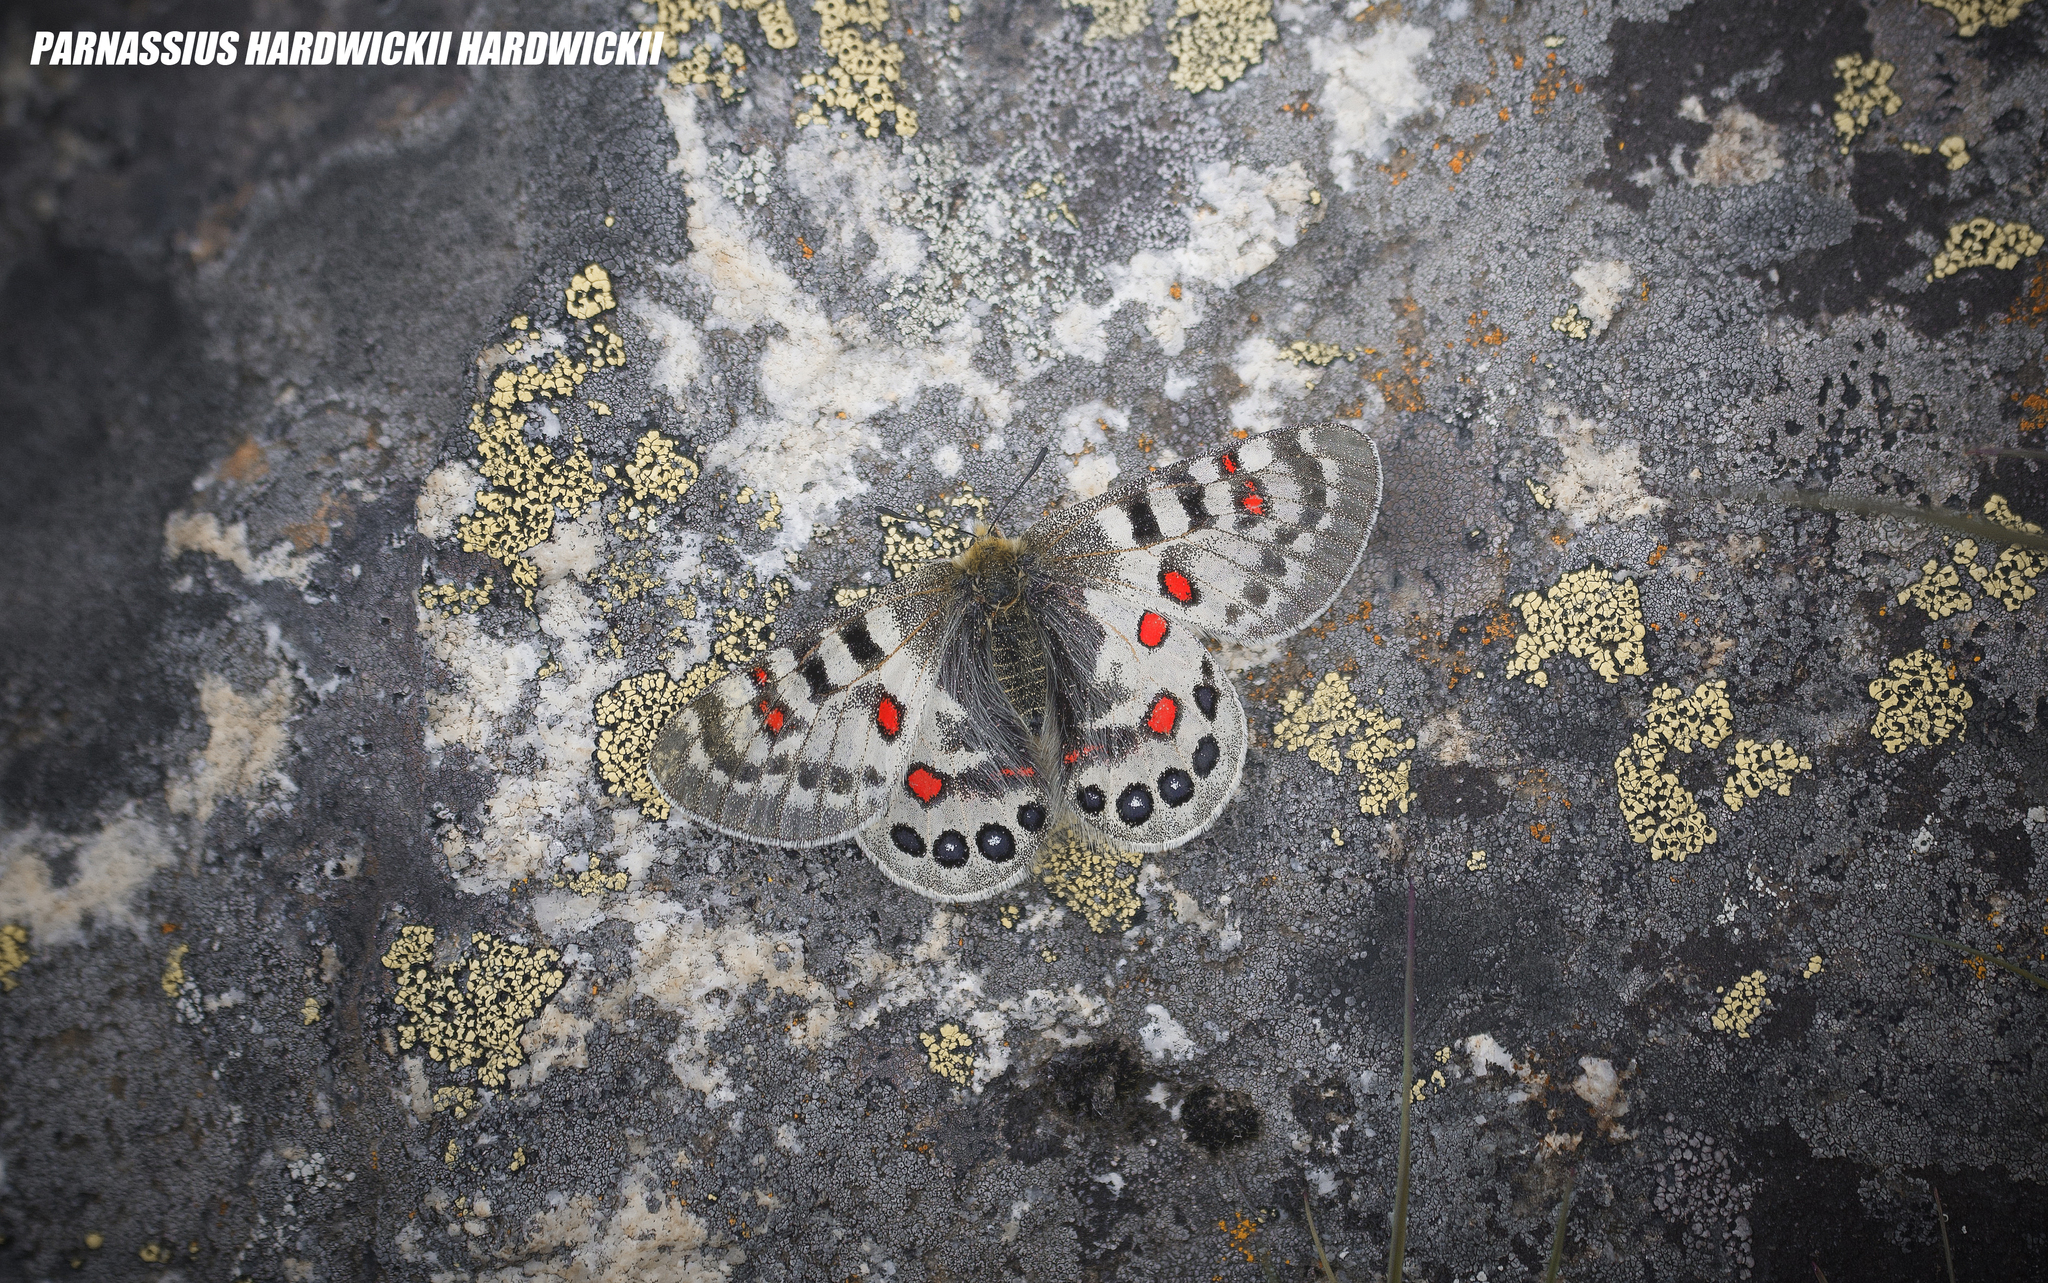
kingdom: Animalia
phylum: Arthropoda
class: Insecta
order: Lepidoptera
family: Papilionidae
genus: Parnassius
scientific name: Parnassius hardwickii
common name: Common blue apollo
